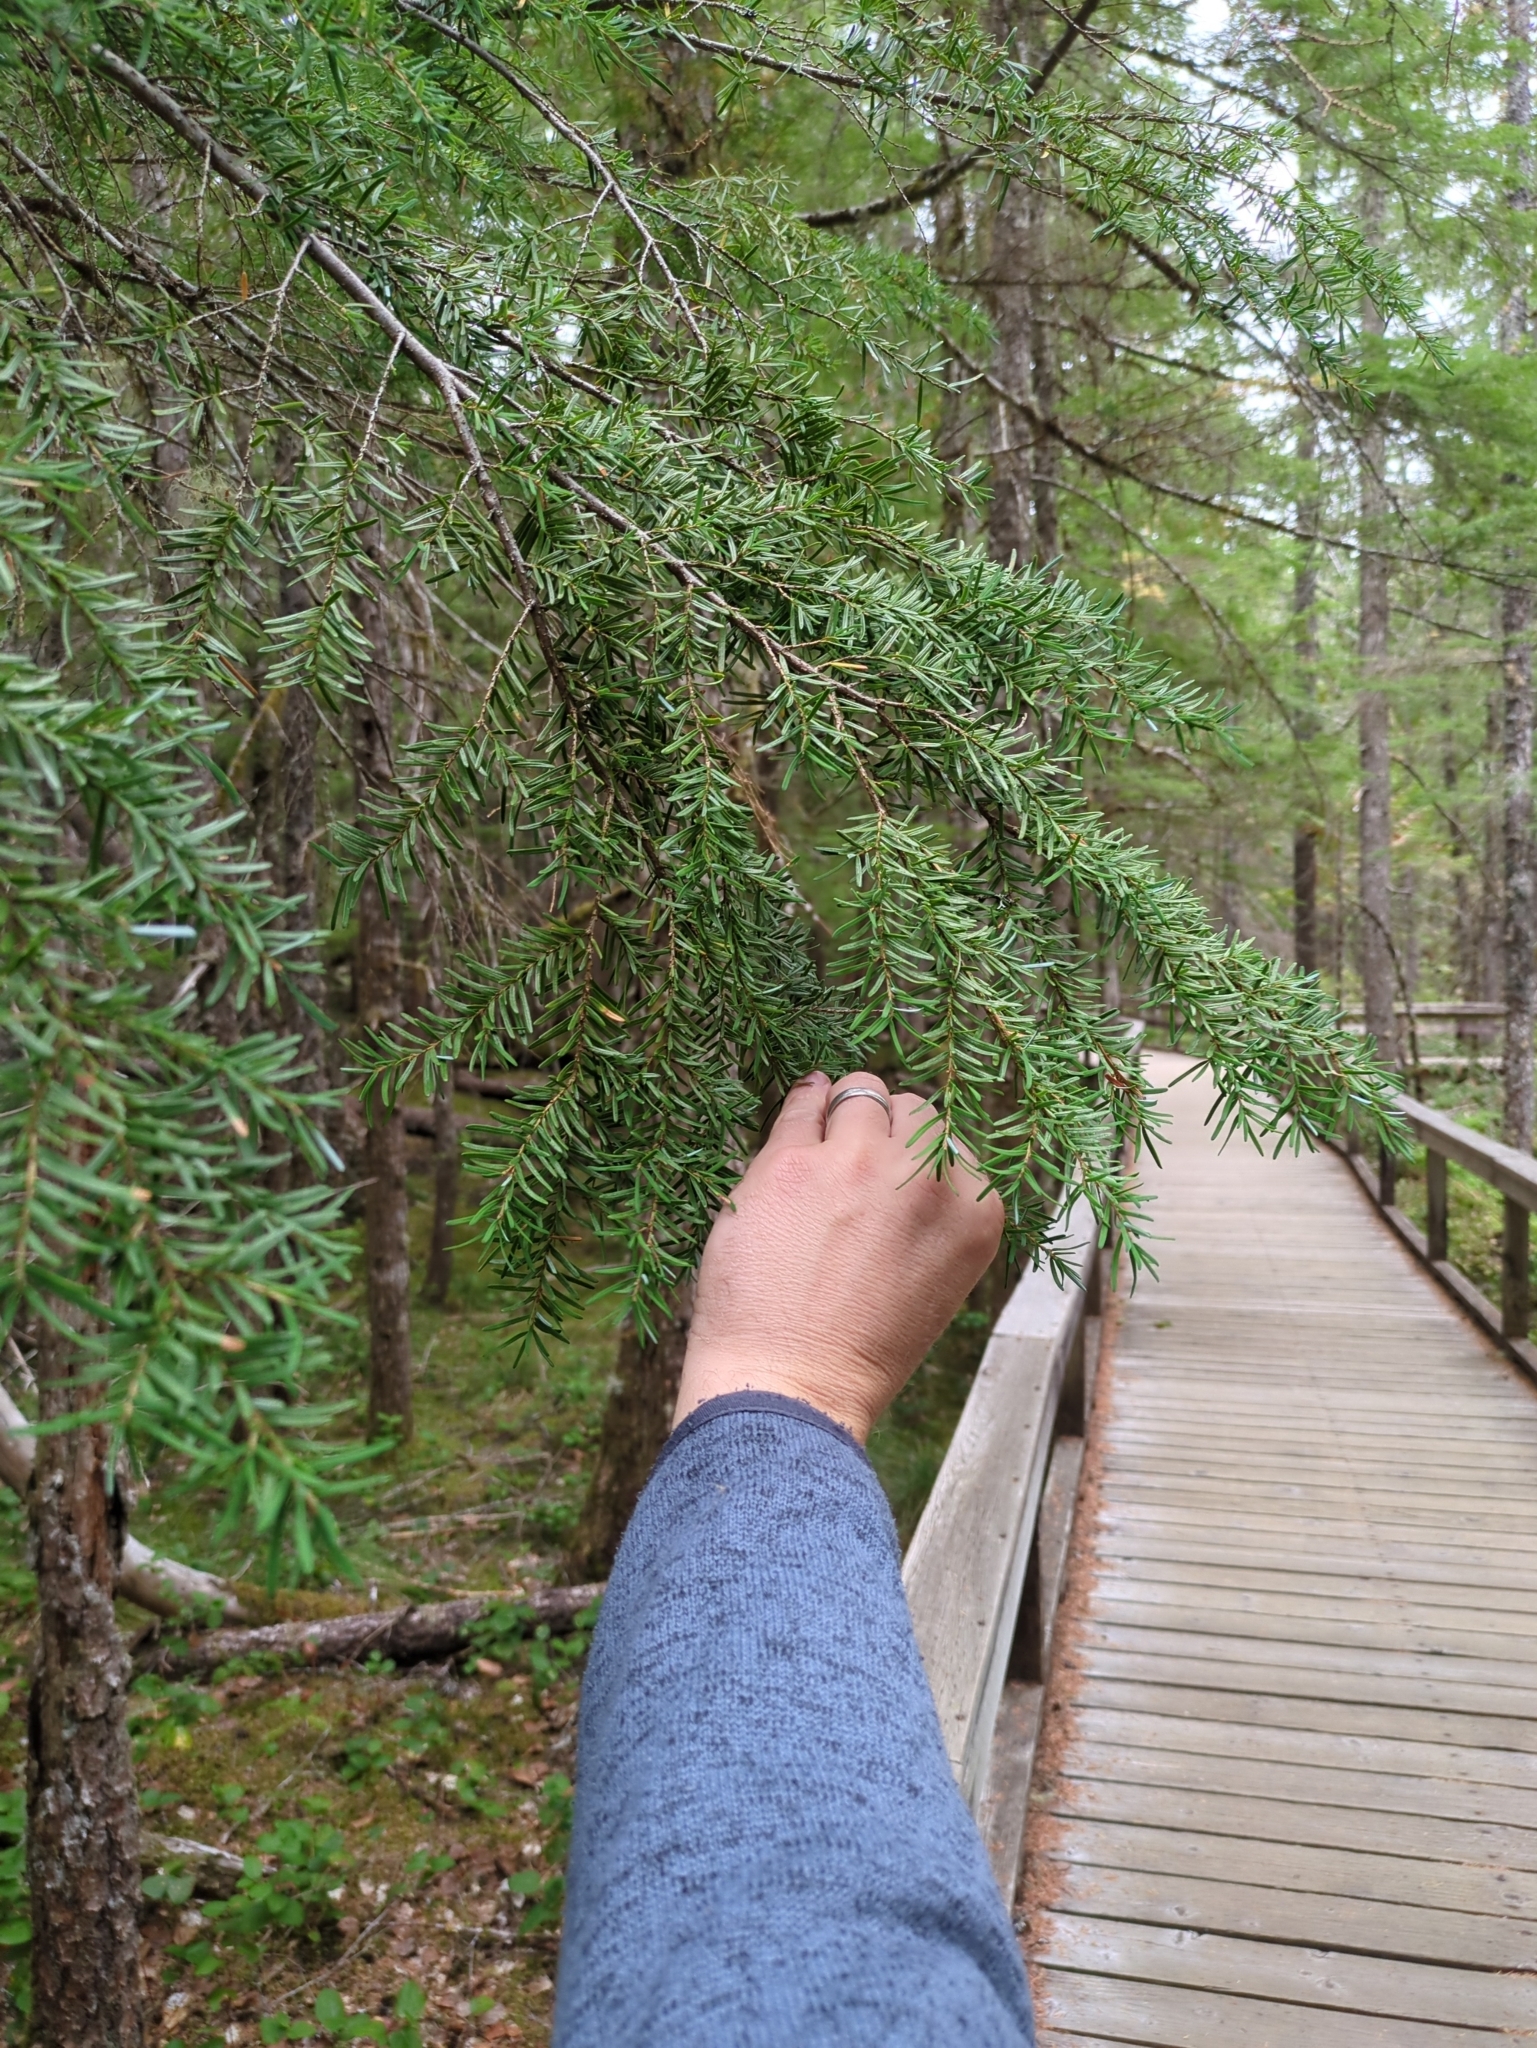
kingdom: Plantae
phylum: Tracheophyta
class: Pinopsida
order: Pinales
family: Pinaceae
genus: Tsuga
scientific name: Tsuga heterophylla
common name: Western hemlock
